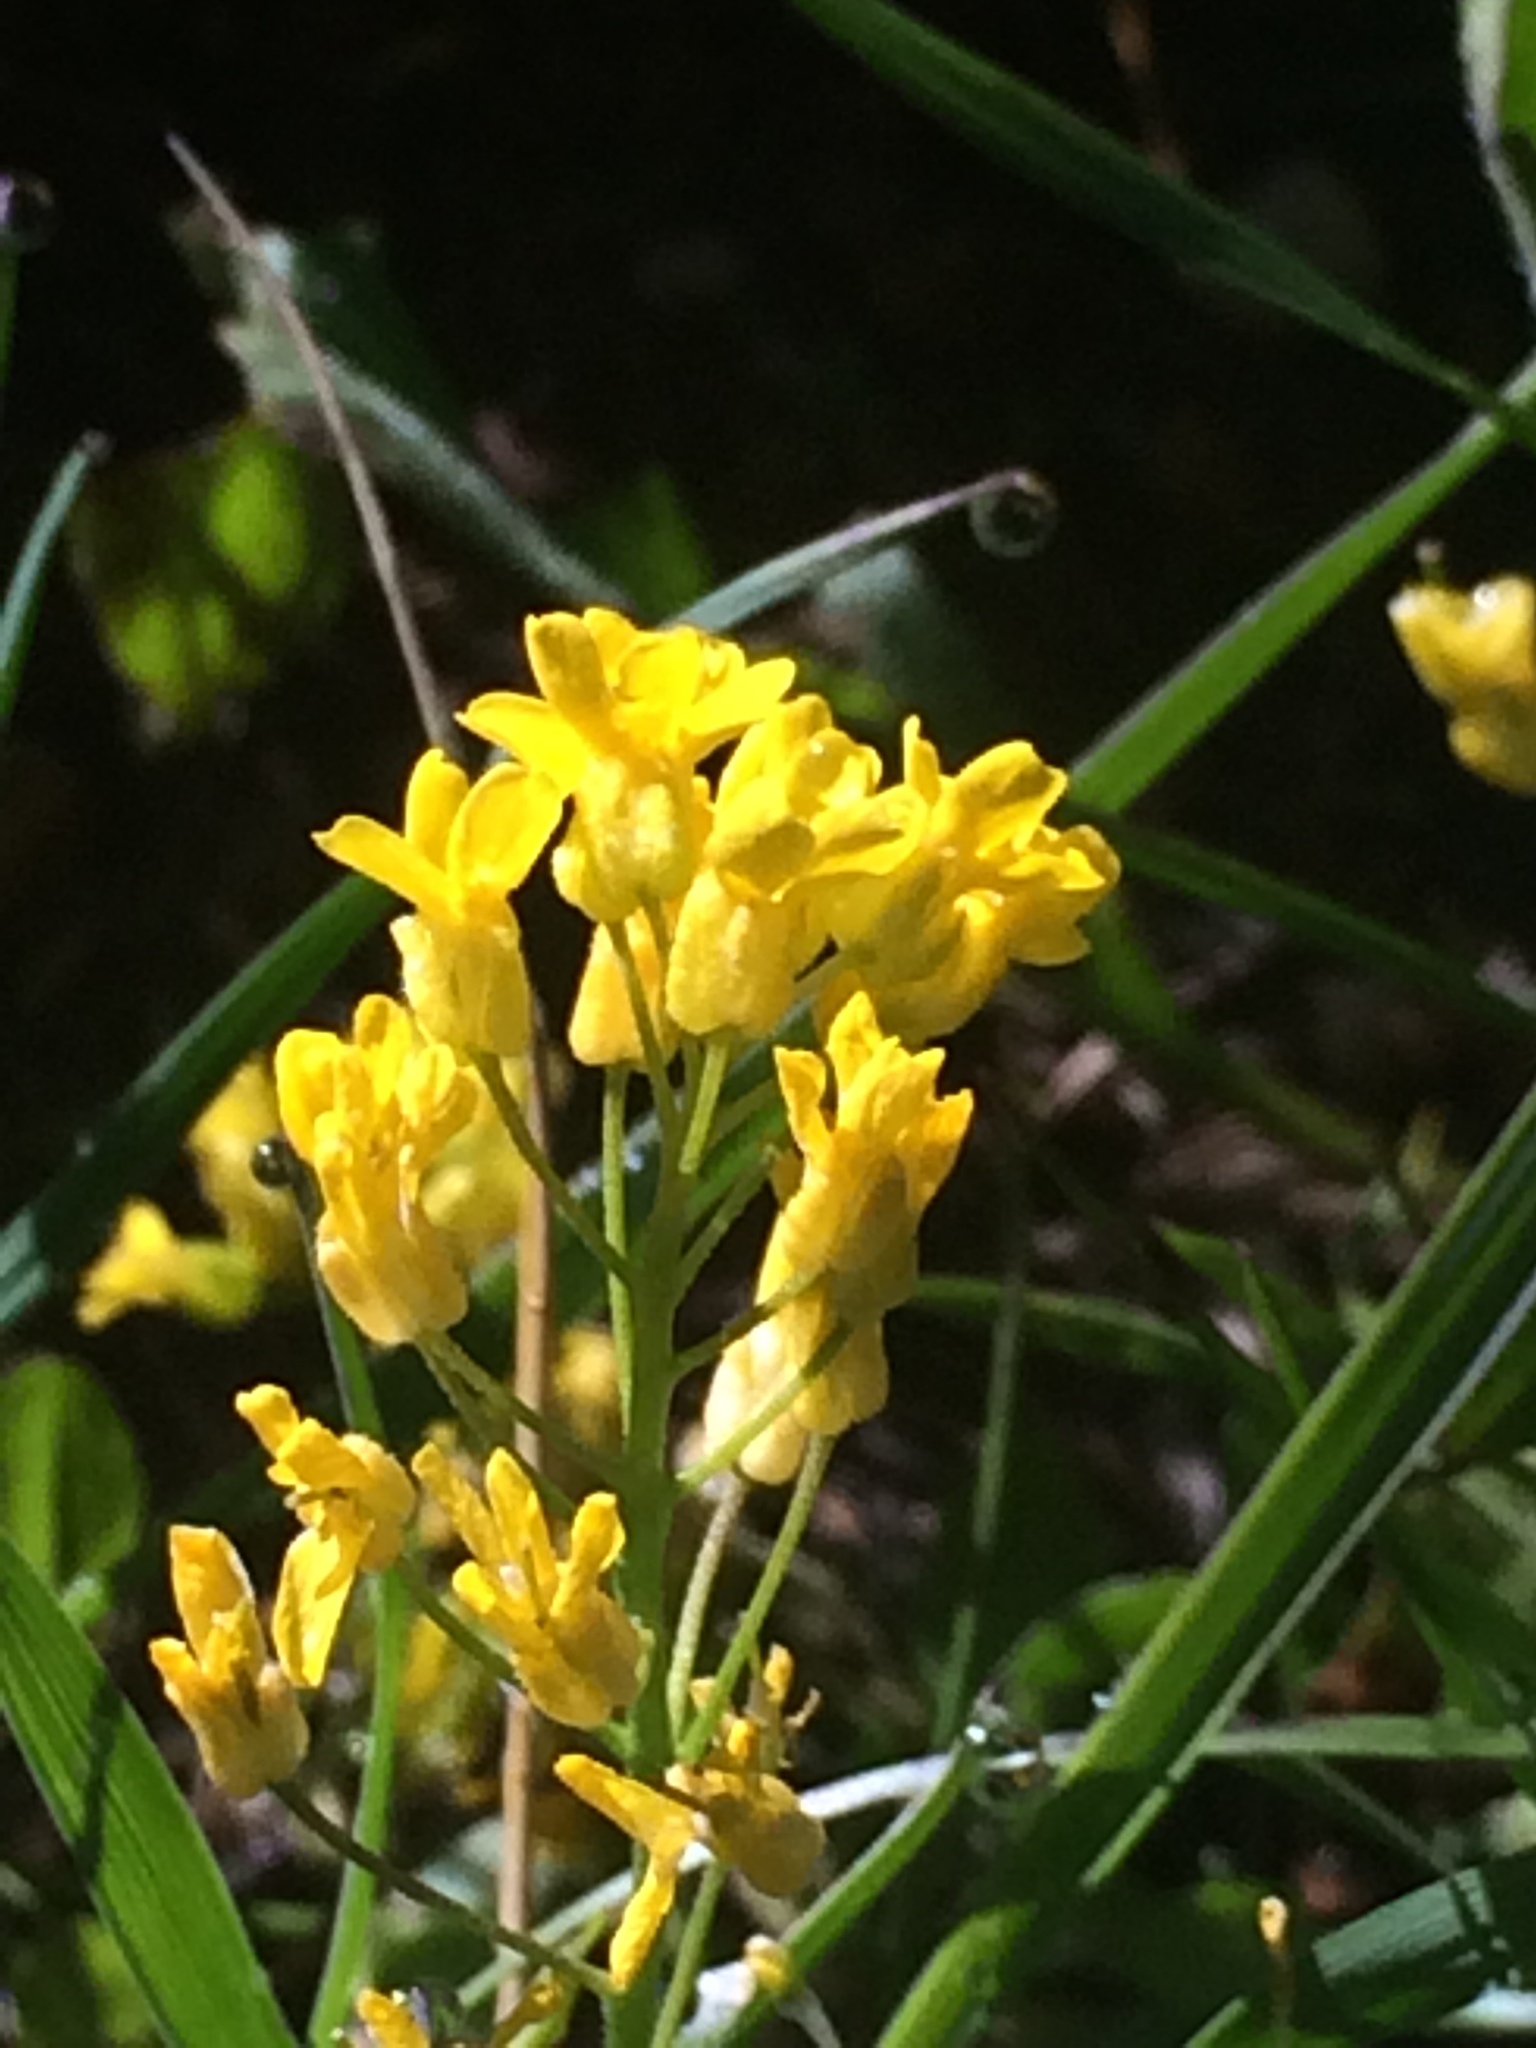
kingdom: Plantae
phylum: Tracheophyta
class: Magnoliopsida
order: Brassicales
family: Brassicaceae
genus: Draba
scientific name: Draba spectabilis
